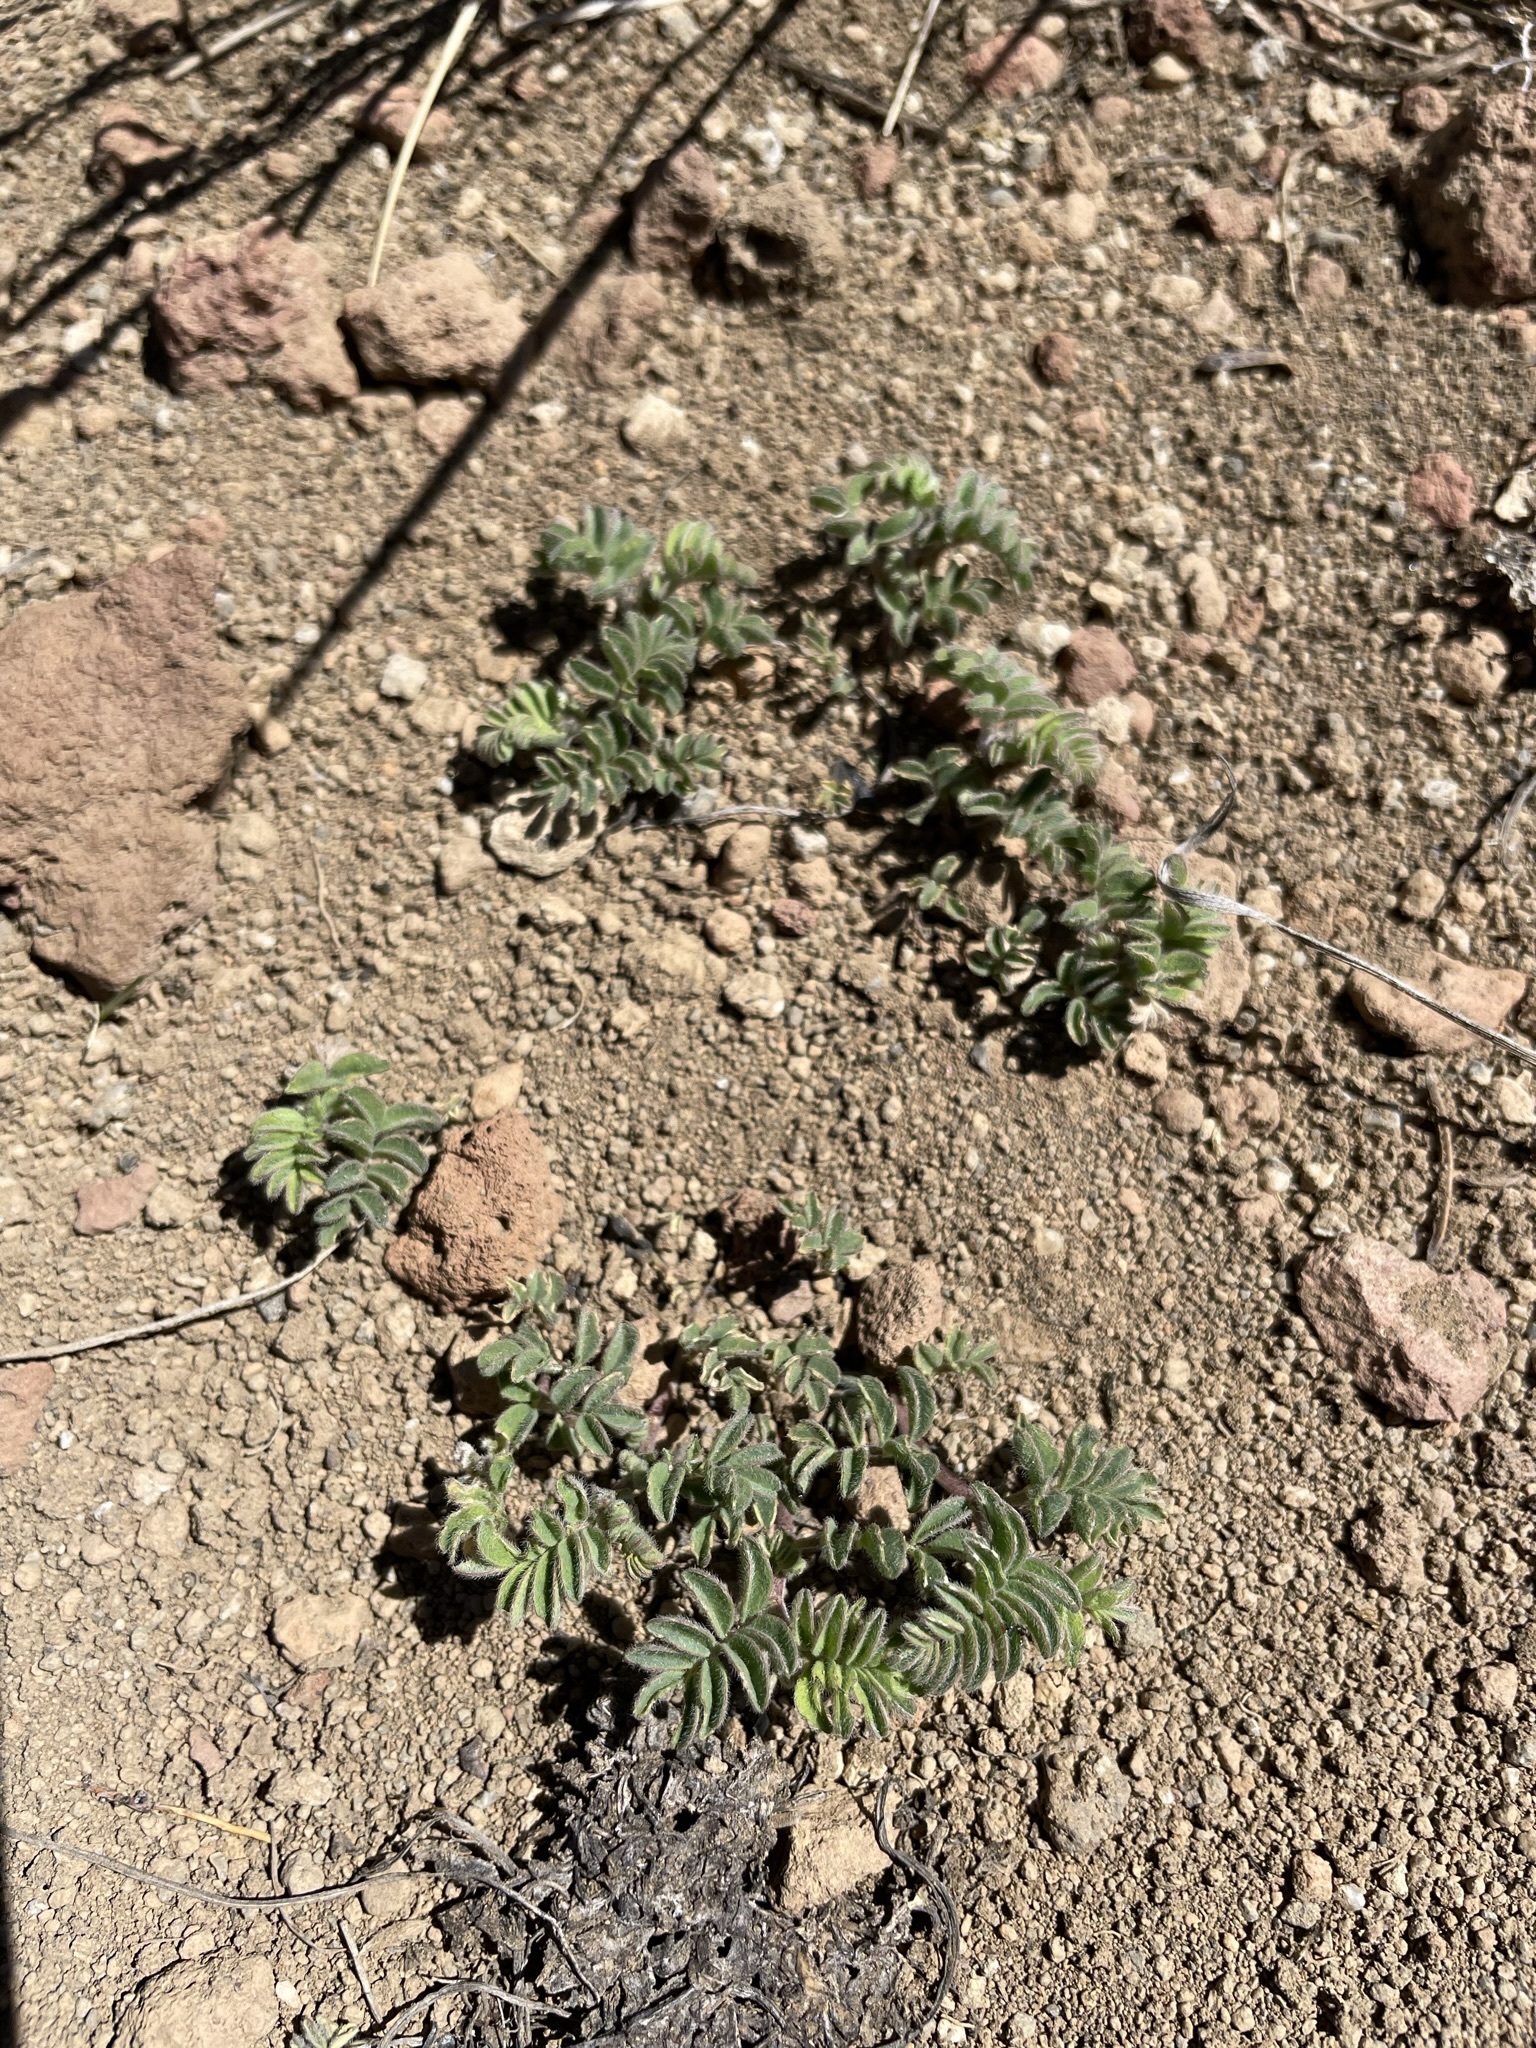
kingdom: Plantae
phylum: Tracheophyta
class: Magnoliopsida
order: Fabales
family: Fabaceae
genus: Astragalus
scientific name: Astragalus pulsiferae
